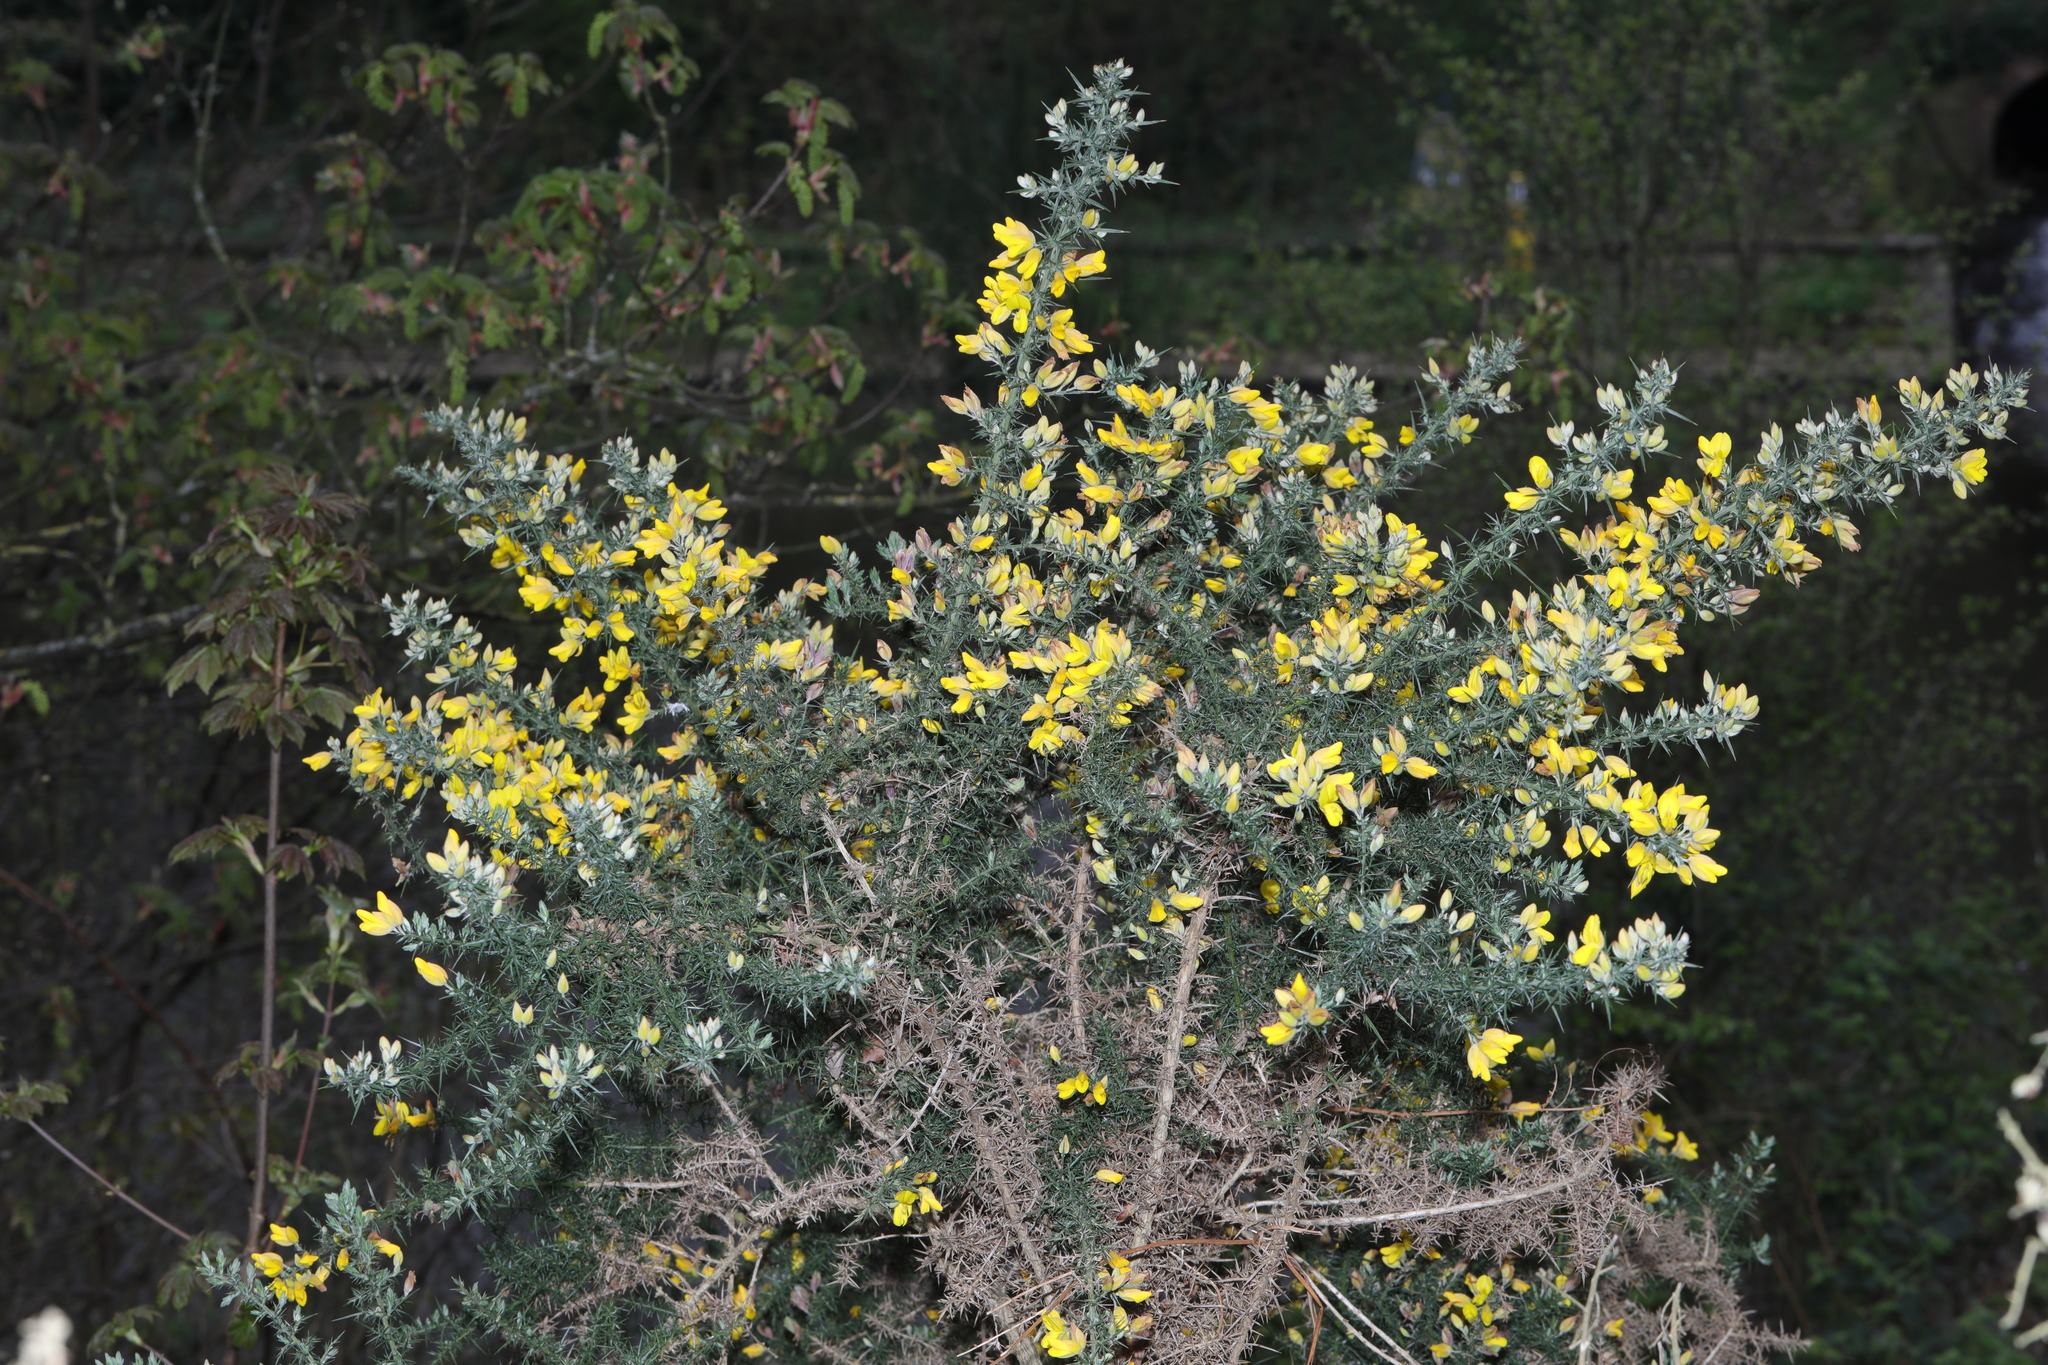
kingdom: Plantae
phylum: Tracheophyta
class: Magnoliopsida
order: Fabales
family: Fabaceae
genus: Ulex
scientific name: Ulex europaeus
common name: Common gorse
